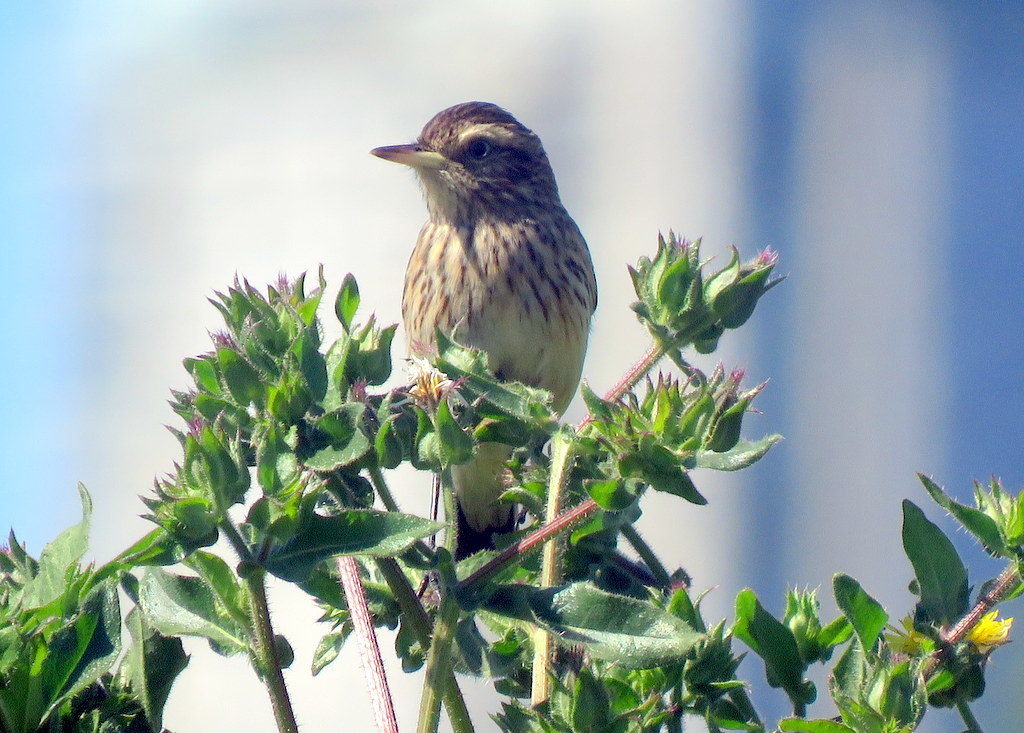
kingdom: Animalia
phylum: Chordata
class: Aves
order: Passeriformes
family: Tyrannidae
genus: Hymenops
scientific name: Hymenops perspicillatus
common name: Spectacled tyrant
